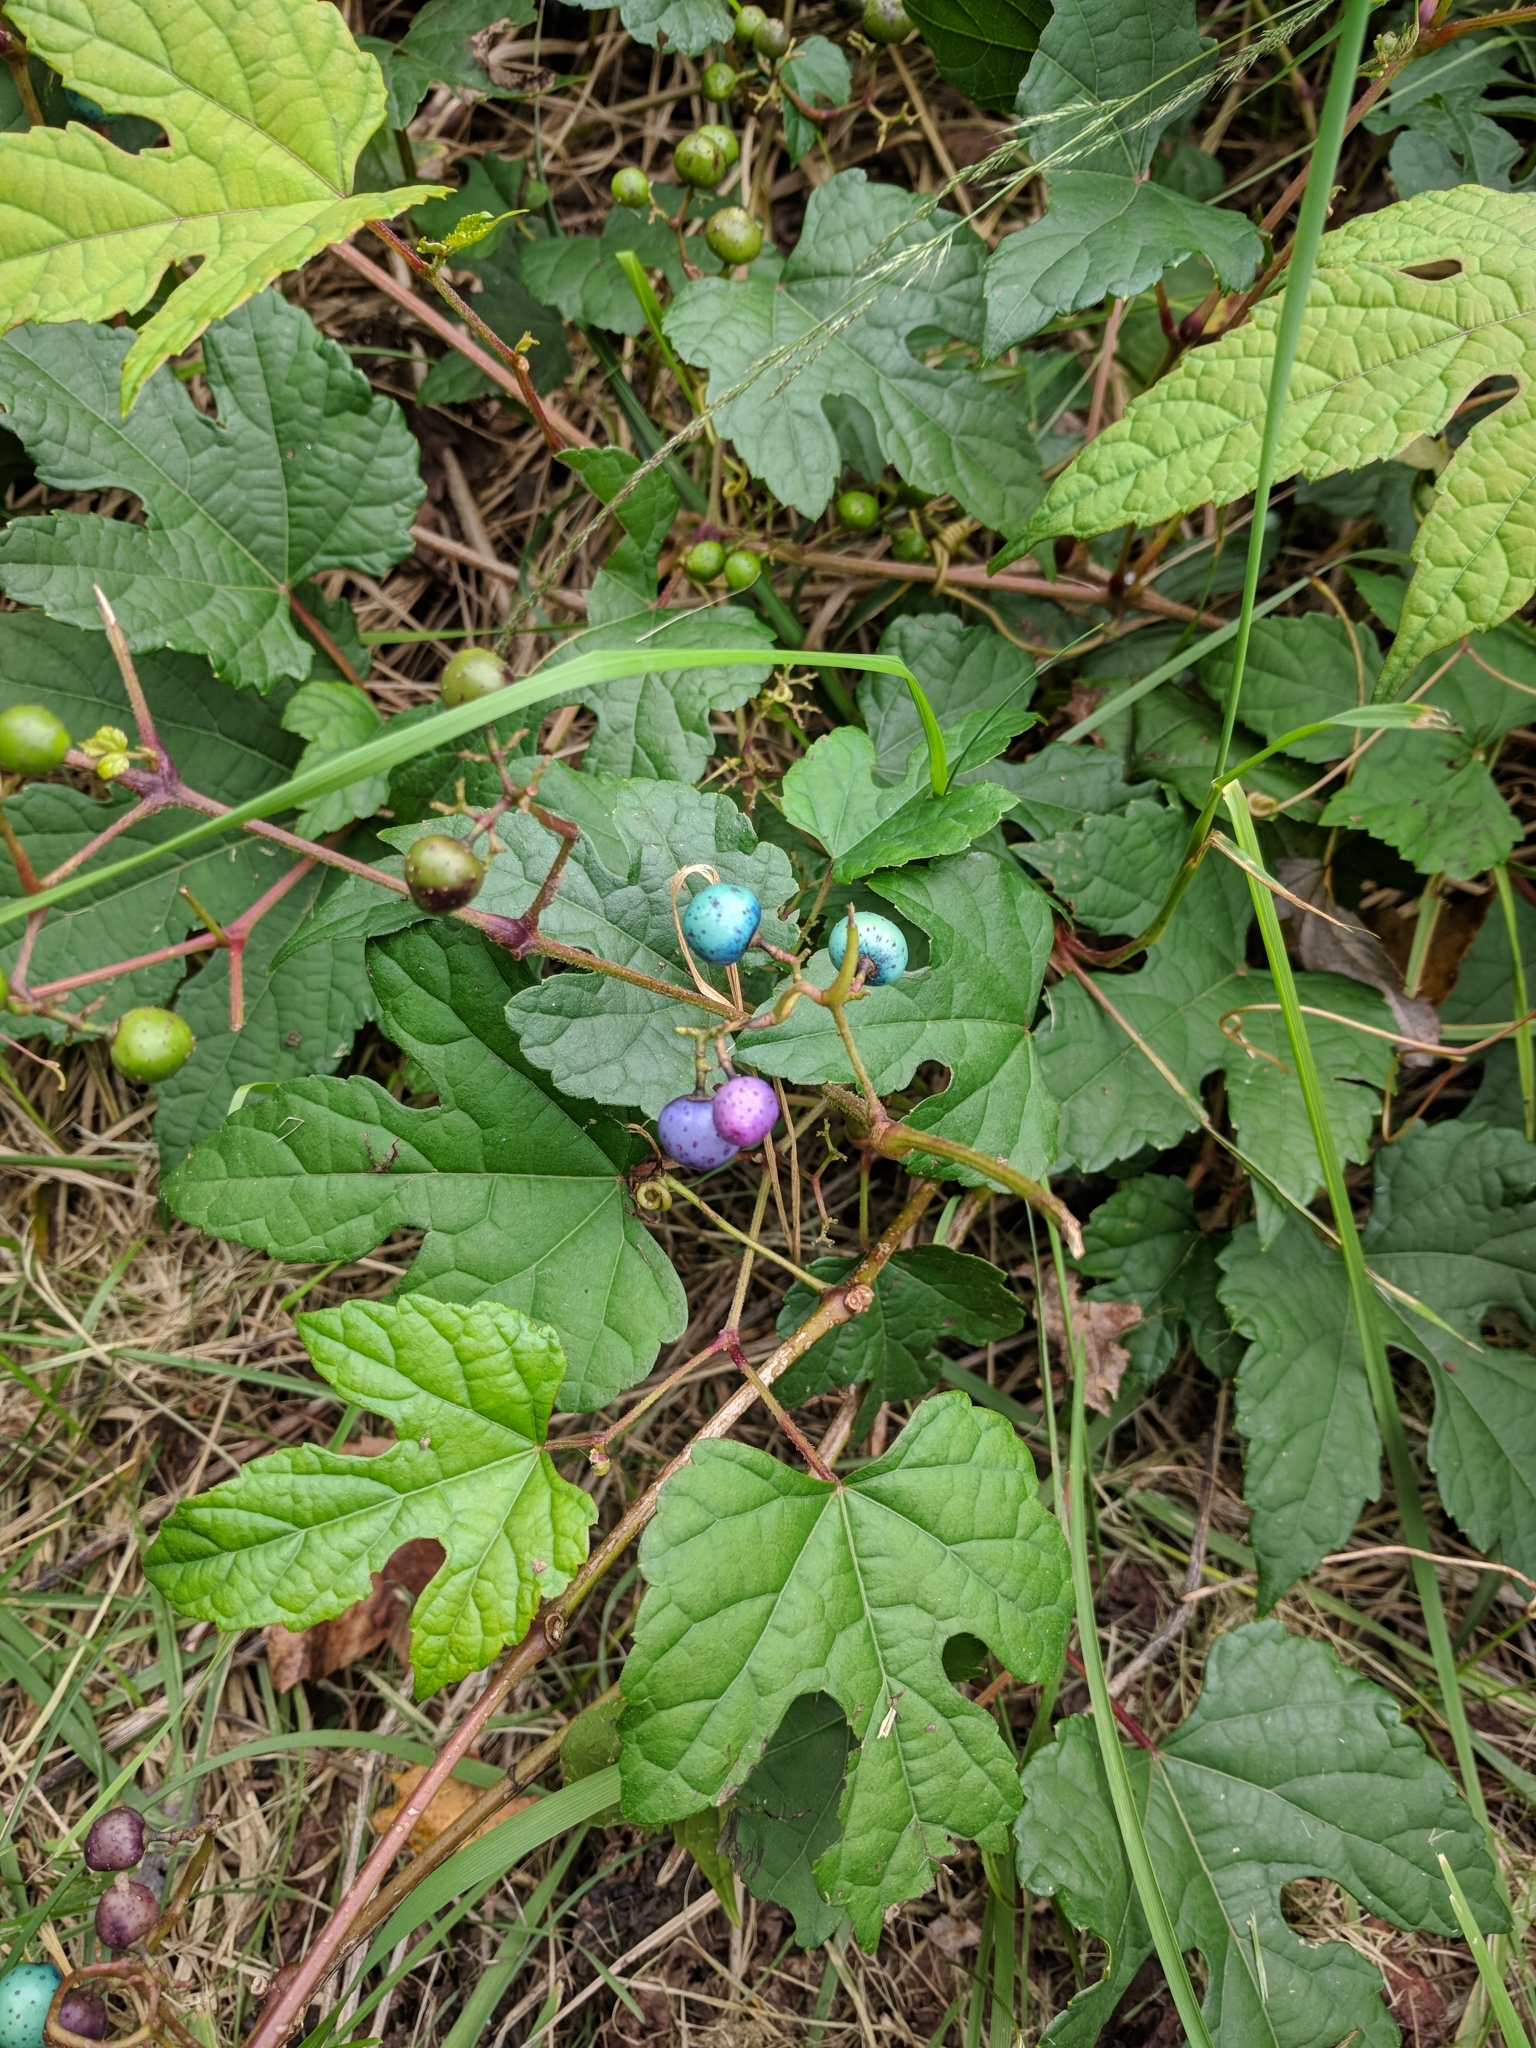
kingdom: Plantae
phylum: Tracheophyta
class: Magnoliopsida
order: Vitales
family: Vitaceae
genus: Ampelopsis
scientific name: Ampelopsis glandulosa
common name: Amur peppervine
